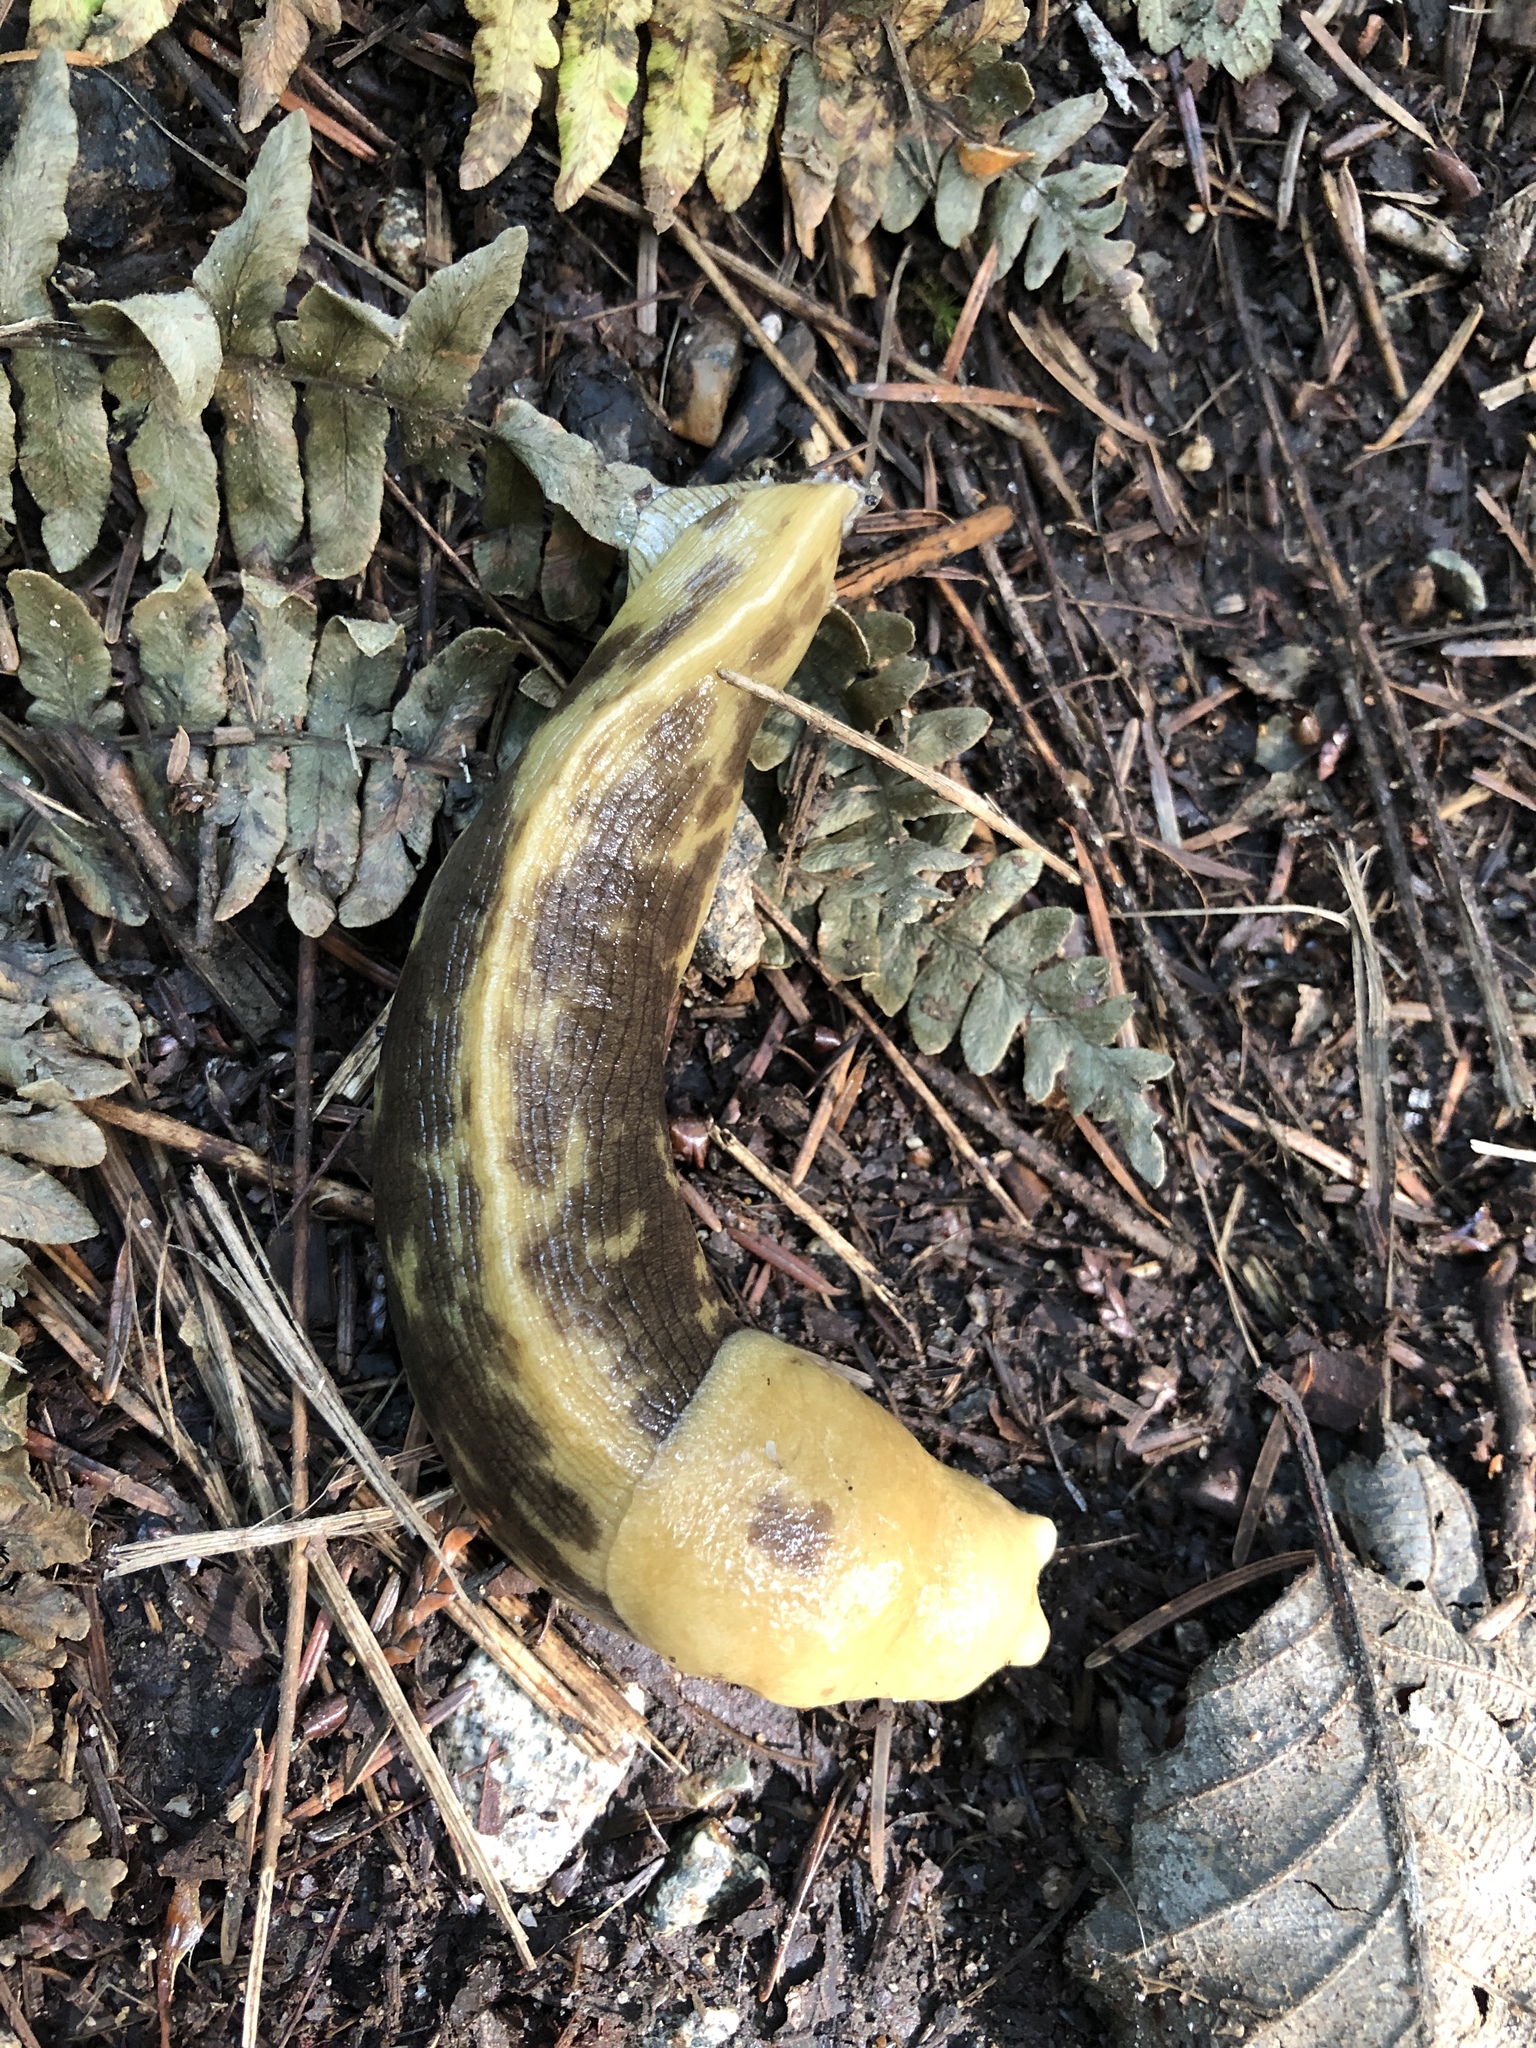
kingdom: Animalia
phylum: Mollusca
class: Gastropoda
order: Stylommatophora
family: Ariolimacidae
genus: Ariolimax
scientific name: Ariolimax columbianus
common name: Pacific banana slug
